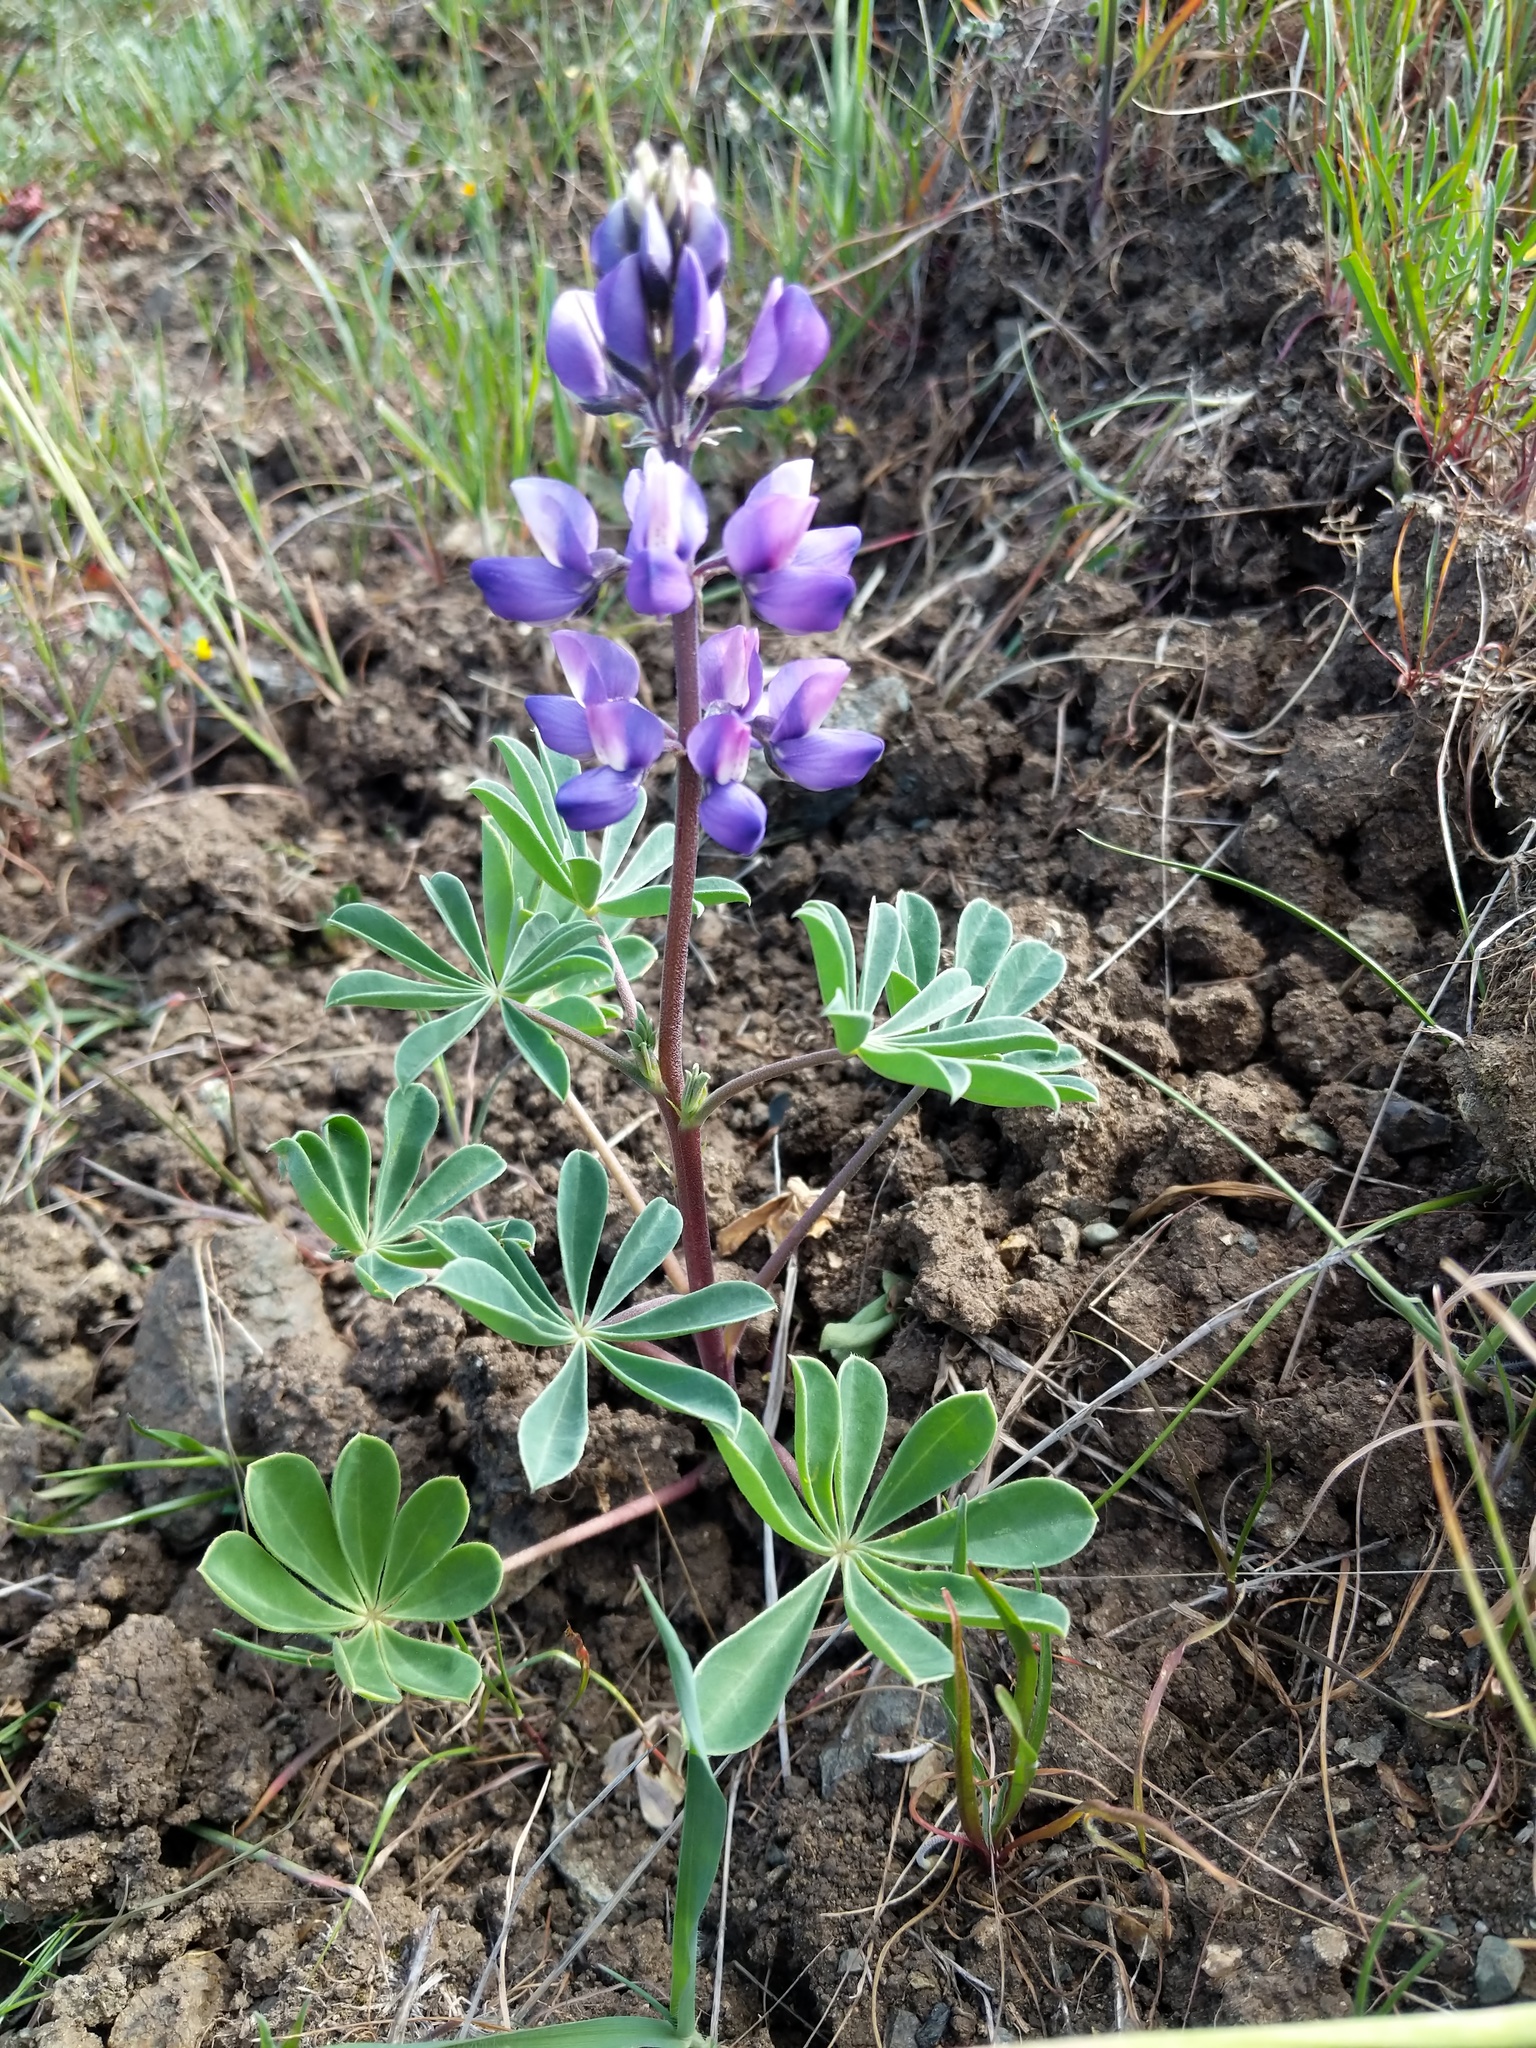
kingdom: Plantae
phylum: Tracheophyta
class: Magnoliopsida
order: Fabales
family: Fabaceae
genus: Lupinus
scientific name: Lupinus succulentus
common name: Arroyo lupine
